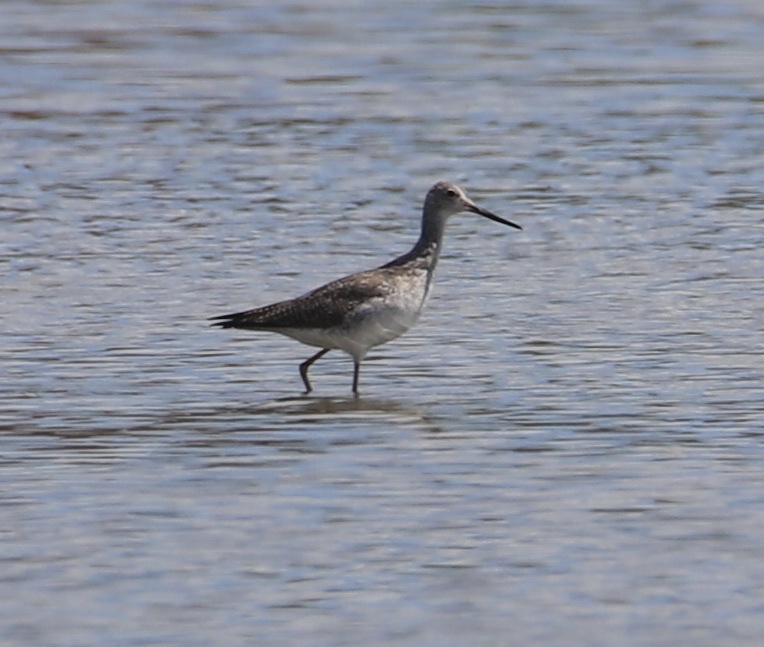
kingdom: Animalia
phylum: Chordata
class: Aves
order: Charadriiformes
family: Scolopacidae
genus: Tringa
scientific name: Tringa melanoleuca
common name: Greater yellowlegs
